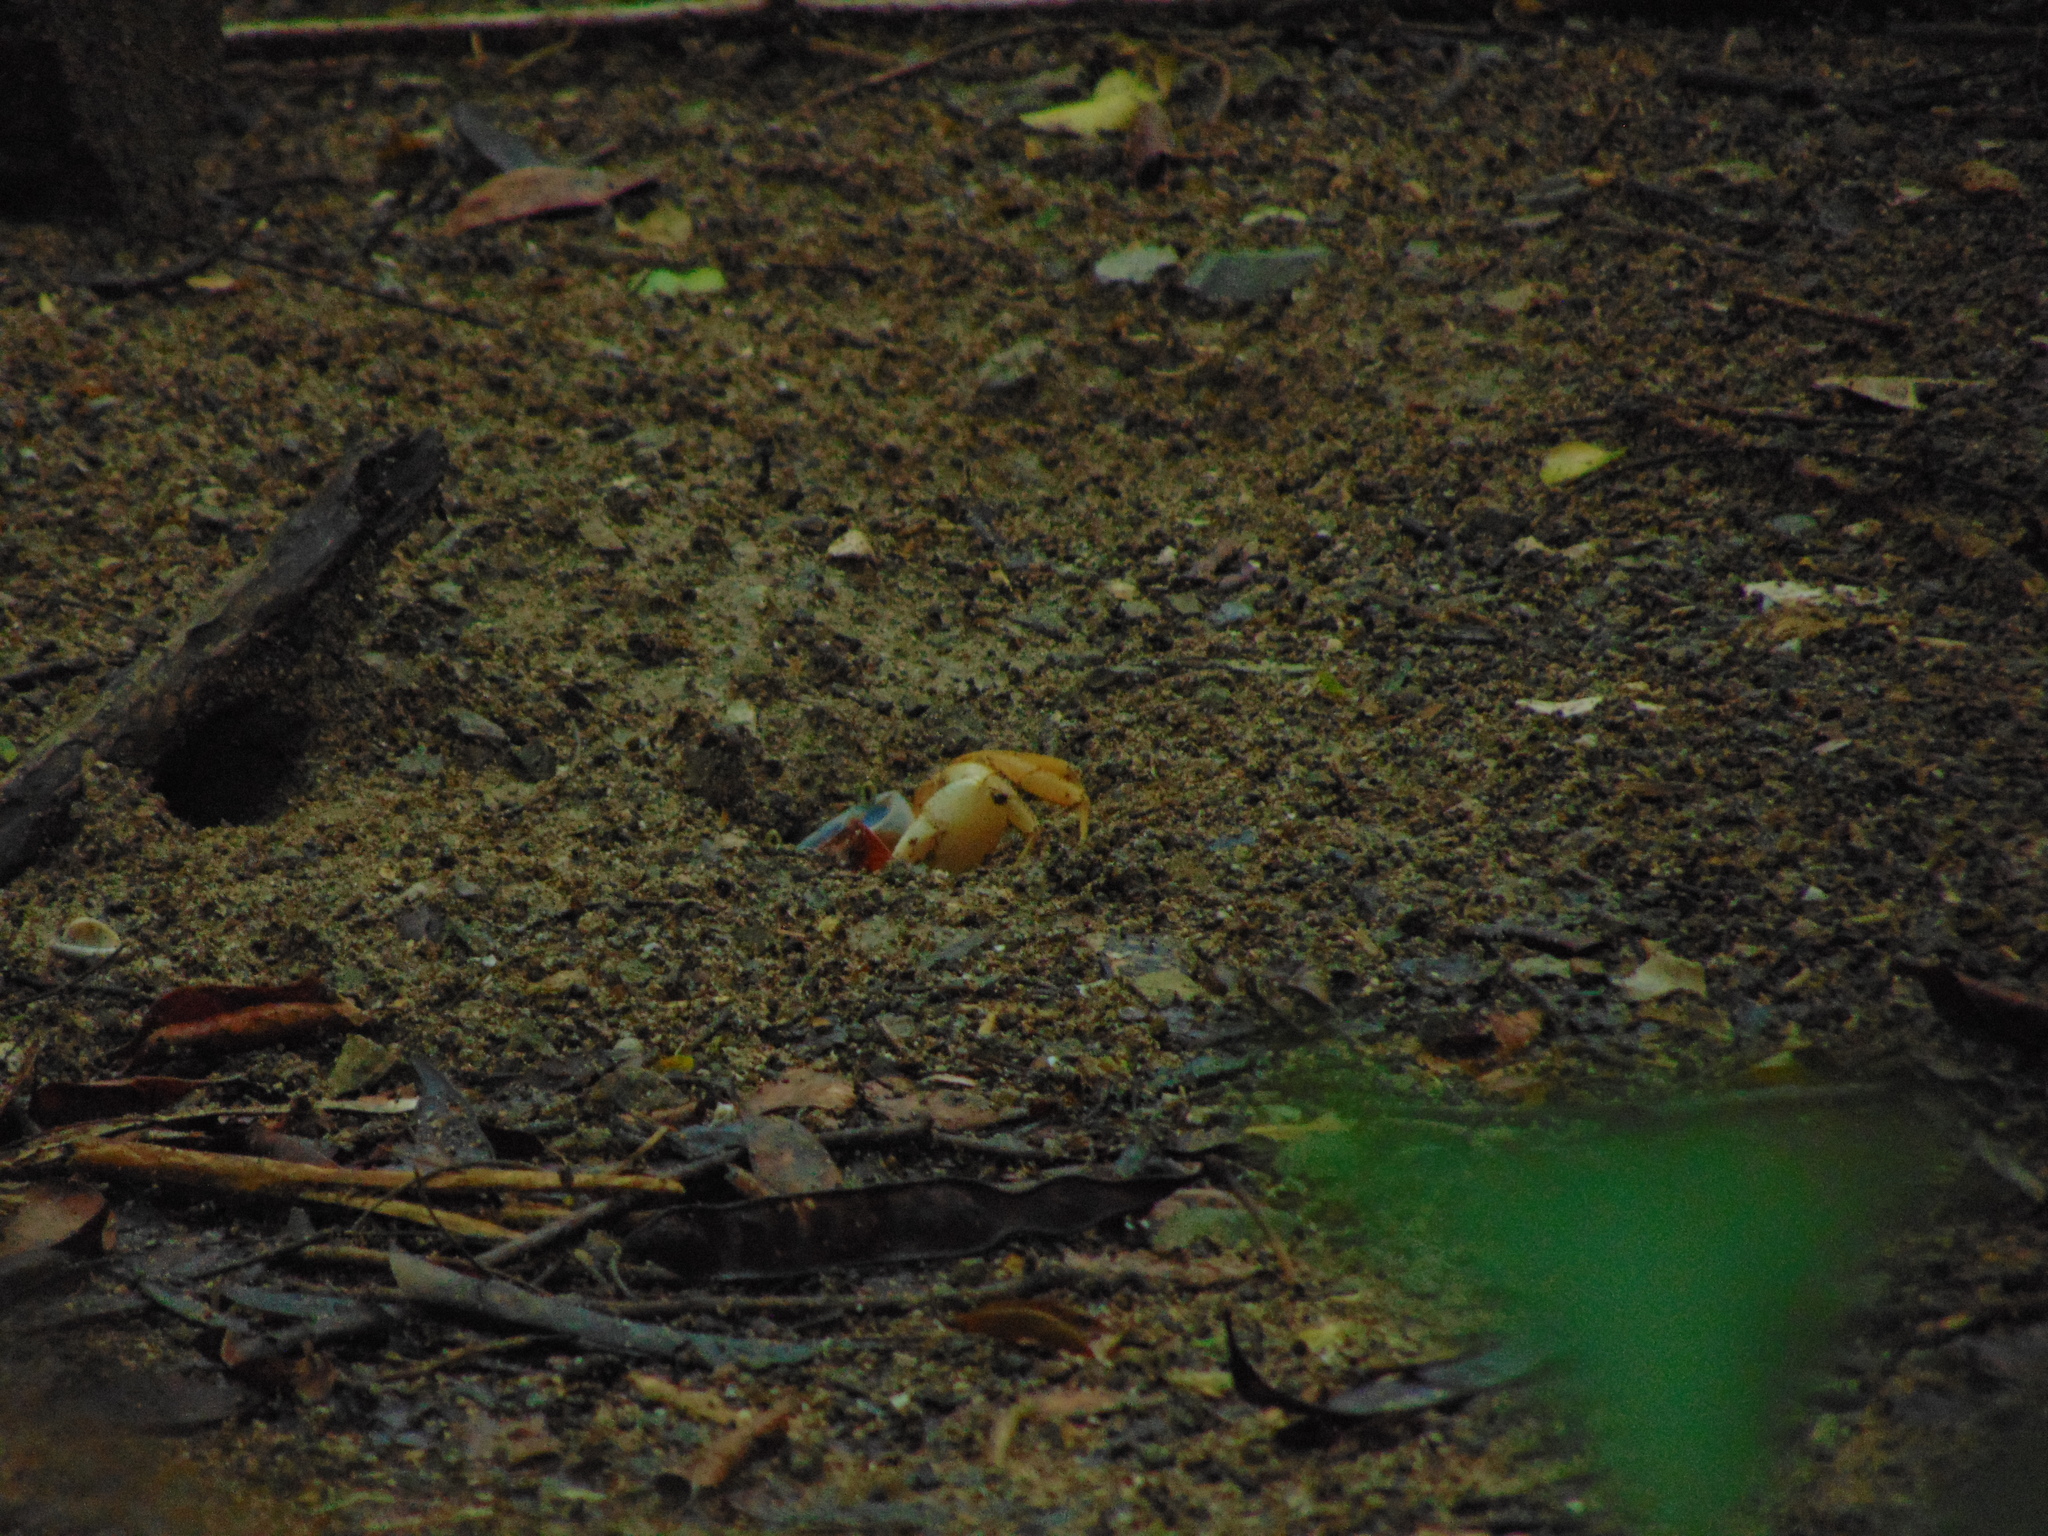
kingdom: Animalia
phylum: Arthropoda
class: Malacostraca
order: Decapoda
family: Gecarcinidae
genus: Cardisoma
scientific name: Cardisoma guanhumi
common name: Great land crab
